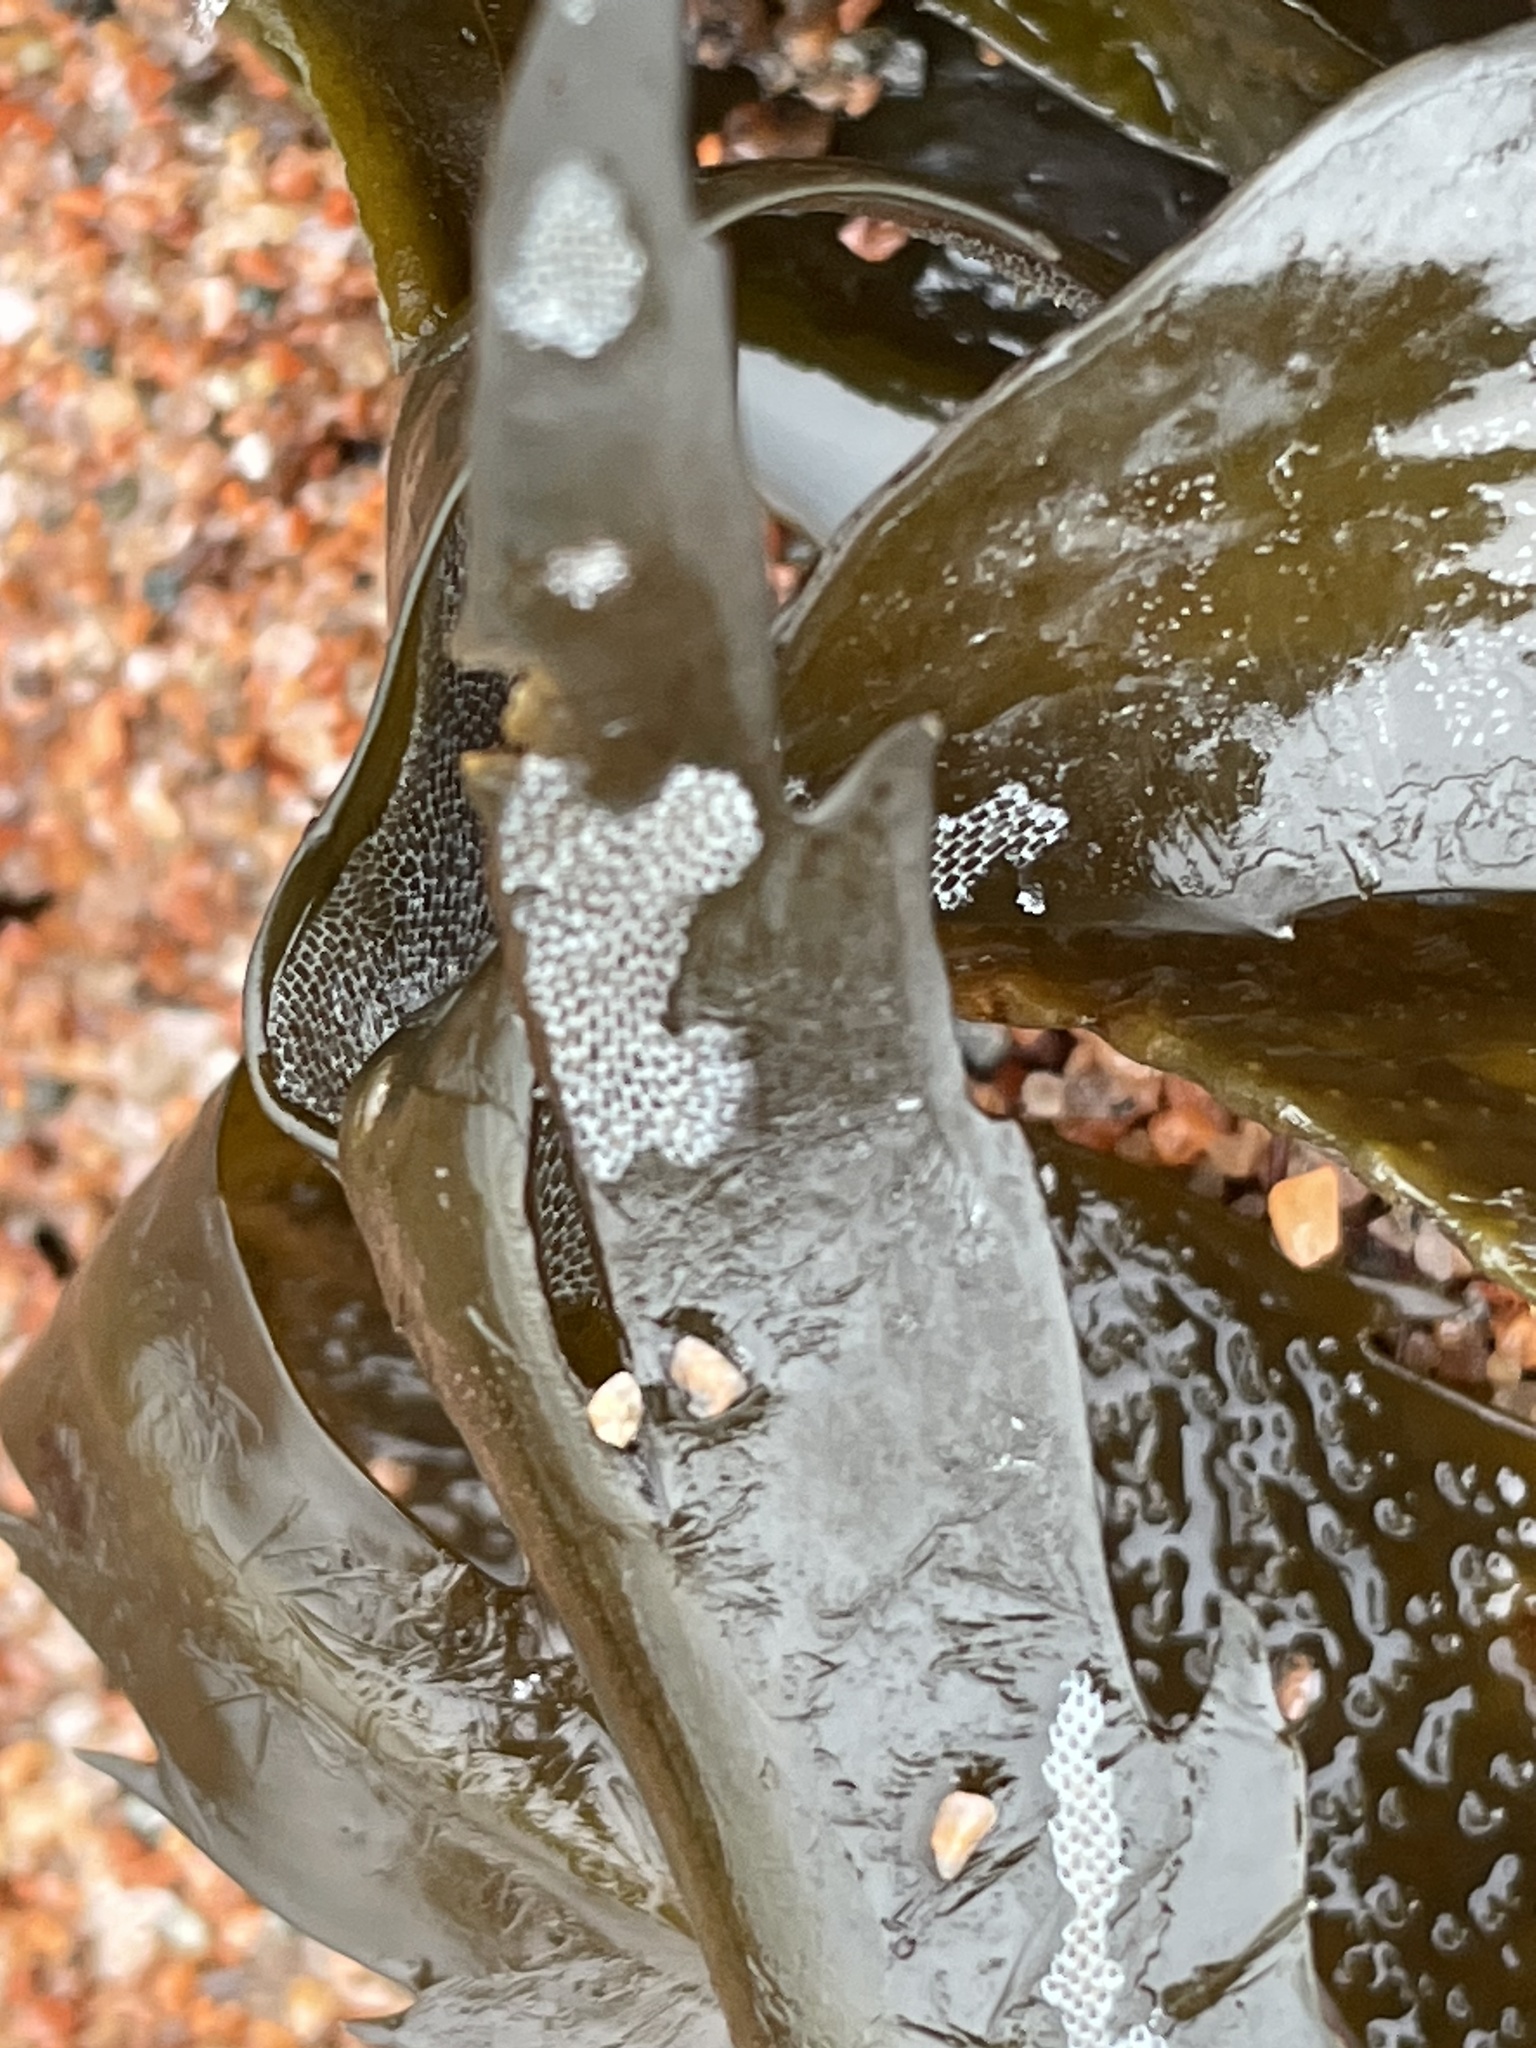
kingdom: Animalia
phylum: Bryozoa
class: Gymnolaemata
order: Cheilostomatida
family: Membraniporidae
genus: Membranipora
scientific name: Membranipora membranacea
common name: Sea mat
